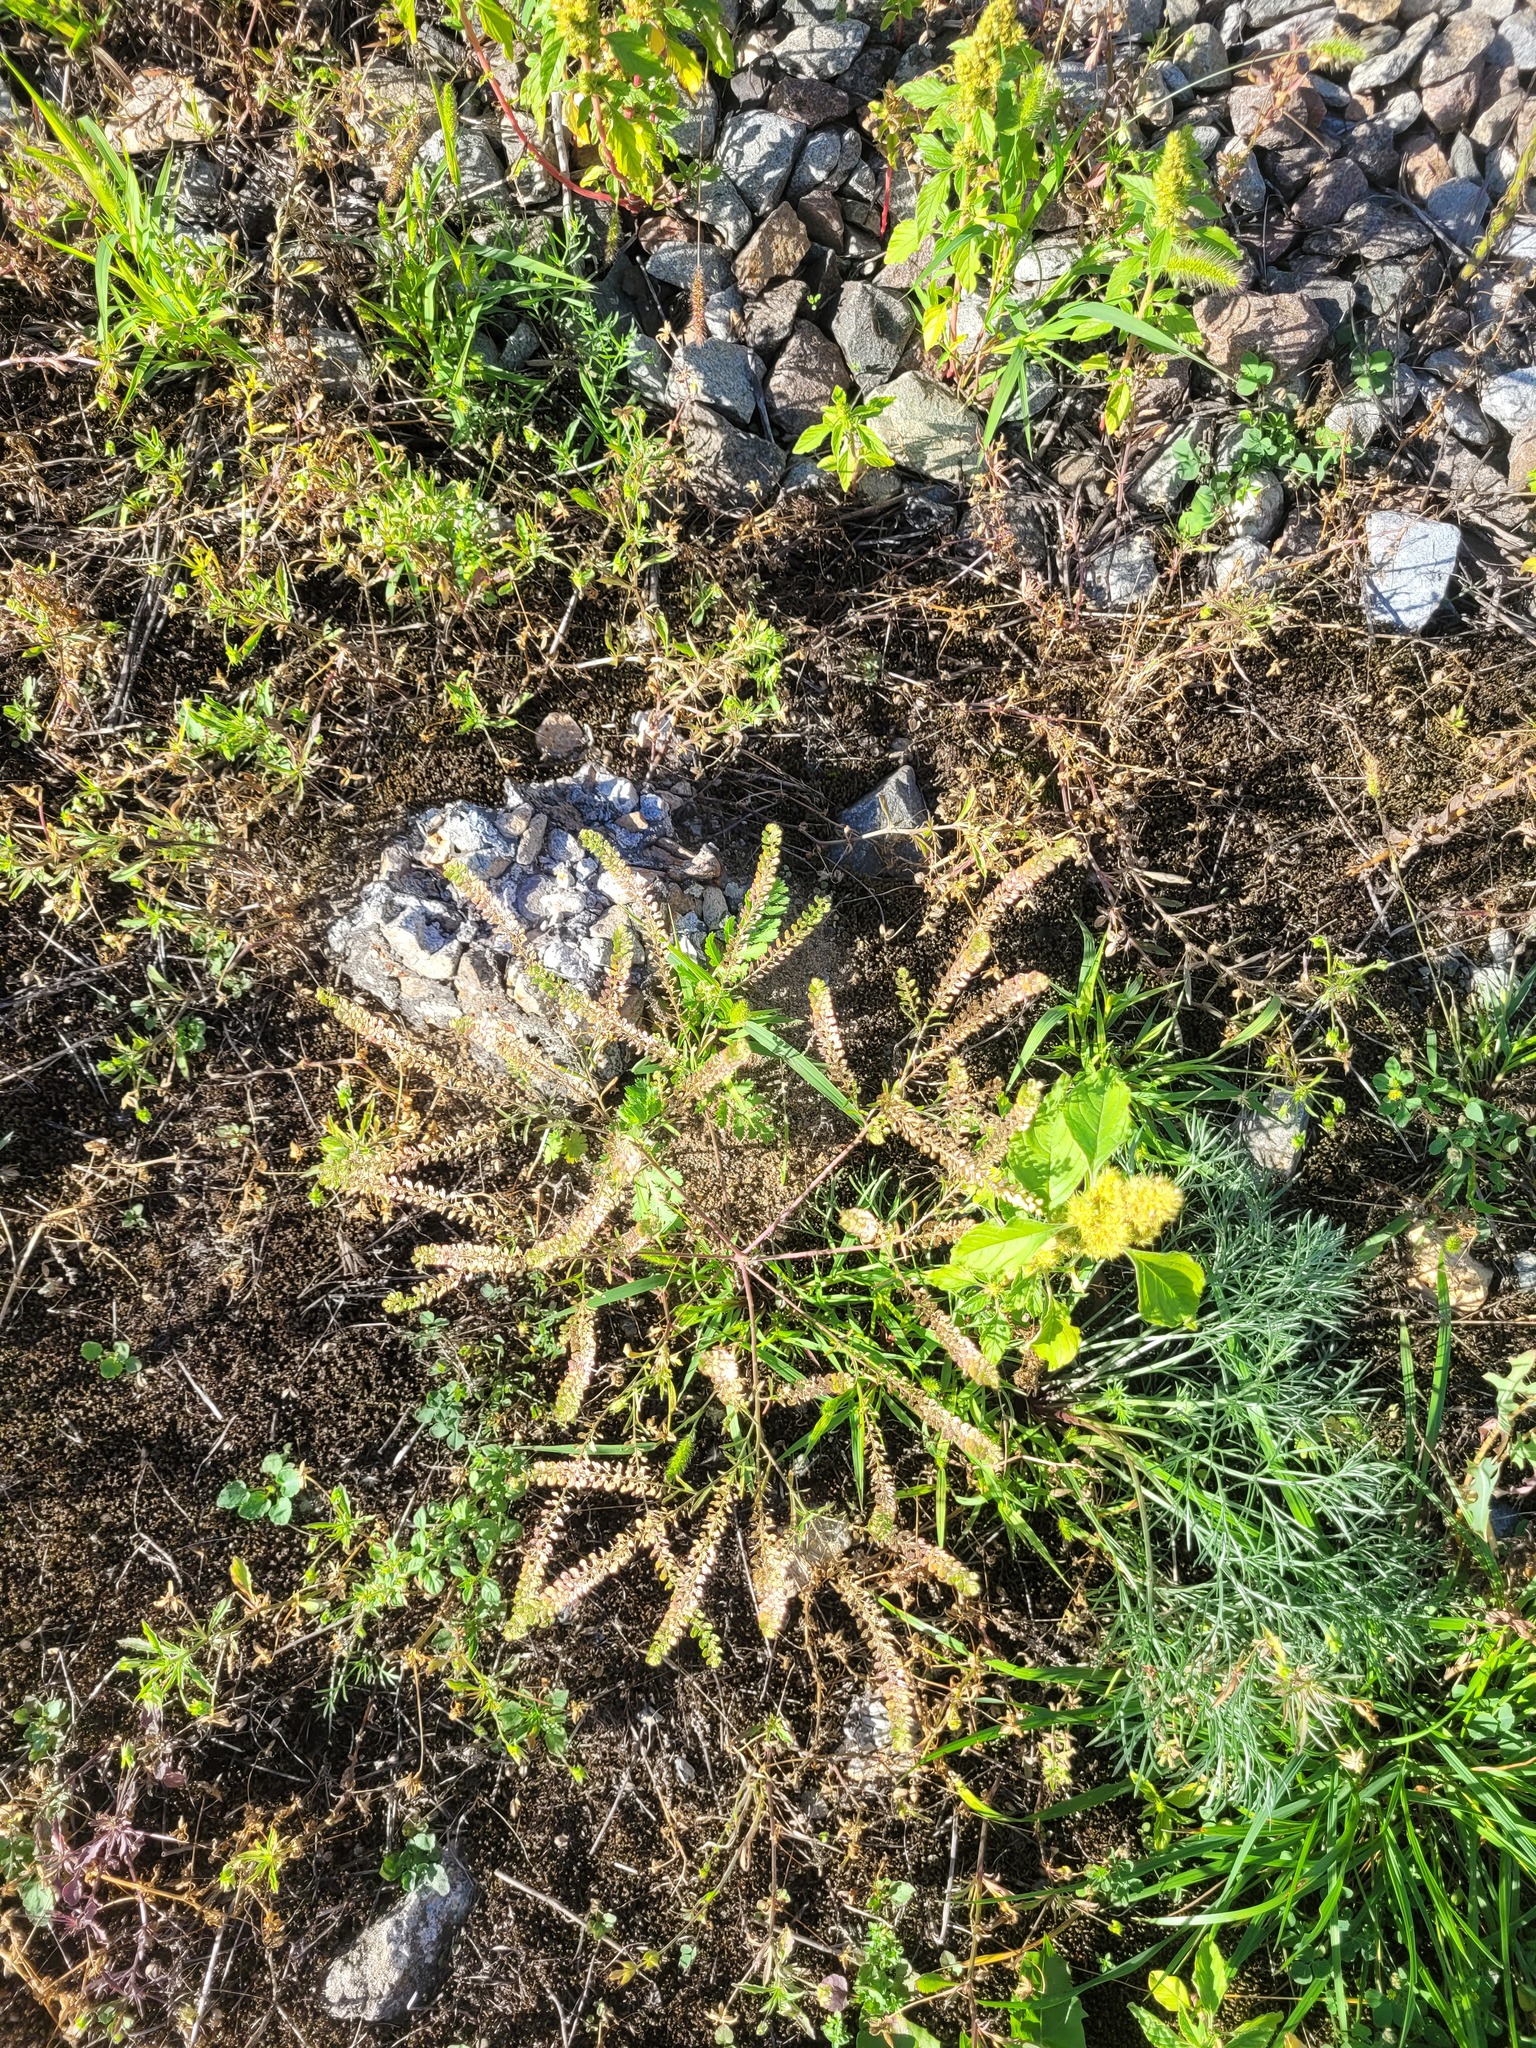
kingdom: Plantae
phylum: Tracheophyta
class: Magnoliopsida
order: Brassicales
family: Brassicaceae
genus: Lepidium
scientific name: Lepidium densiflorum
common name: Miner's pepperwort
